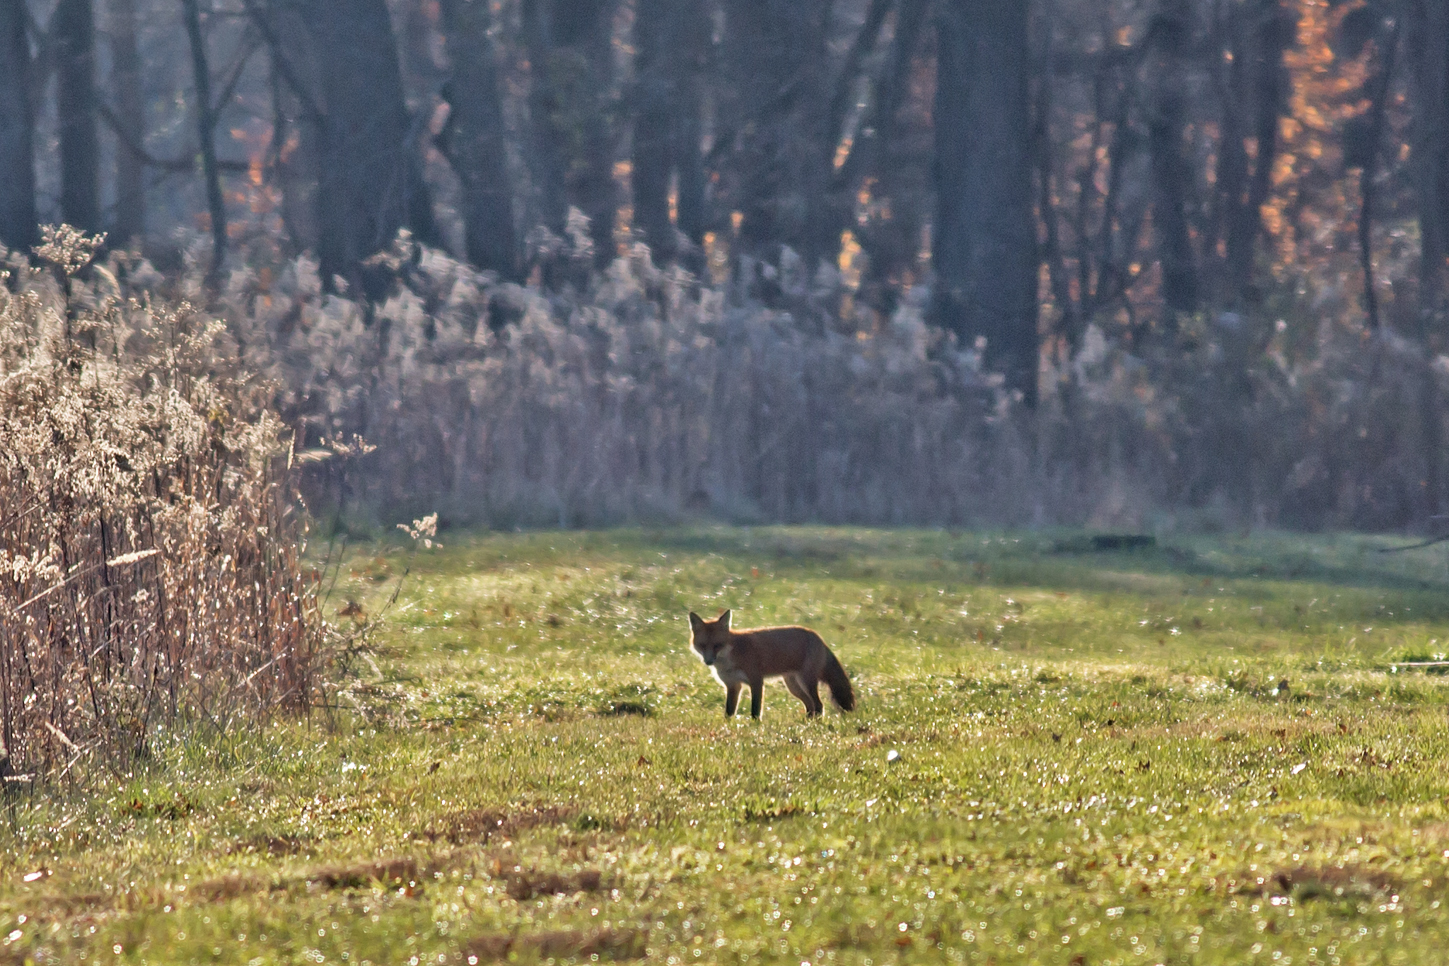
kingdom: Animalia
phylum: Chordata
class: Mammalia
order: Carnivora
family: Canidae
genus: Vulpes
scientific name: Vulpes vulpes
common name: Red fox
